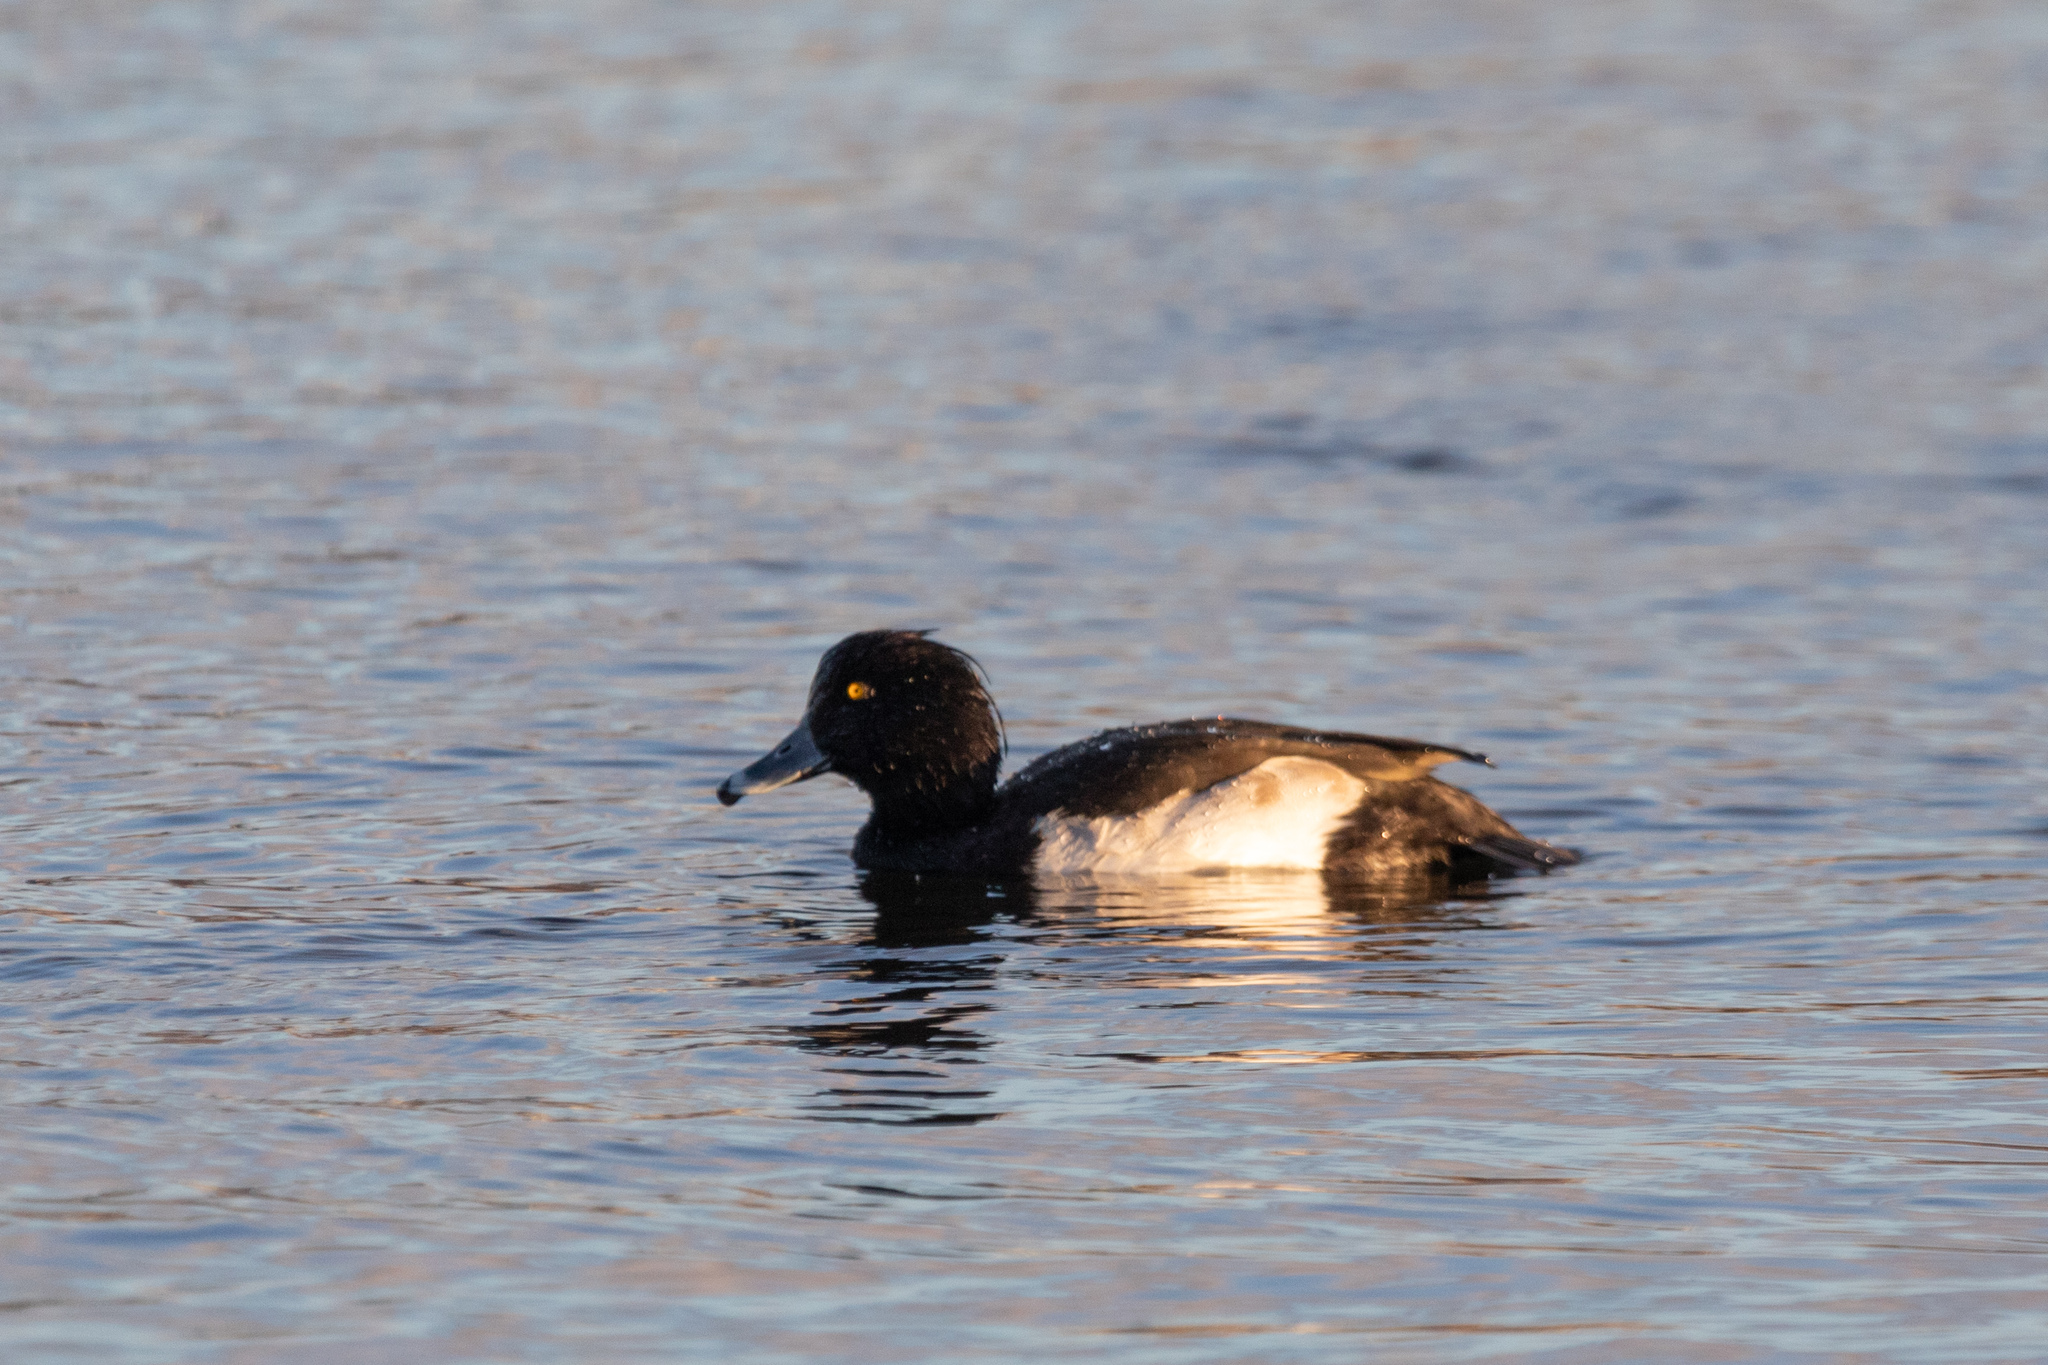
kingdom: Animalia
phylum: Chordata
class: Aves
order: Anseriformes
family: Anatidae
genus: Aythya
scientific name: Aythya fuligula
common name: Tufted duck
